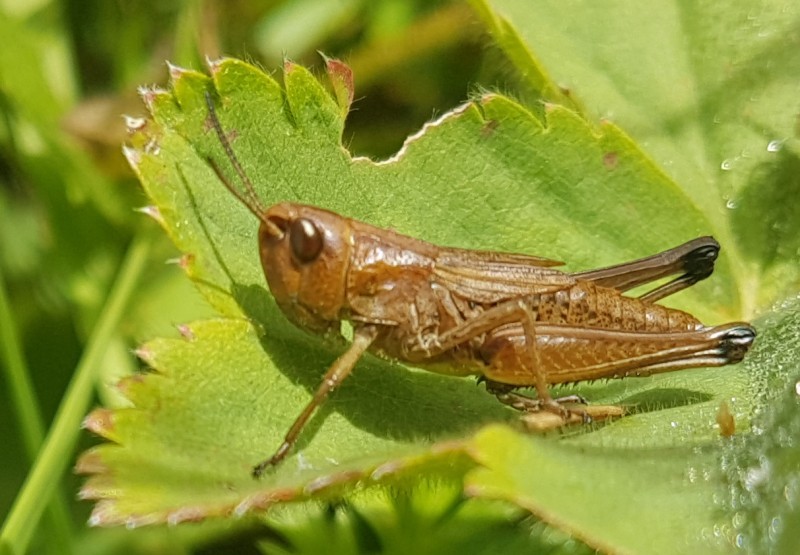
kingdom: Animalia
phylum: Arthropoda
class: Insecta
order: Orthoptera
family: Acrididae
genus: Pseudochorthippus
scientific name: Pseudochorthippus parallelus
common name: Meadow grasshopper
